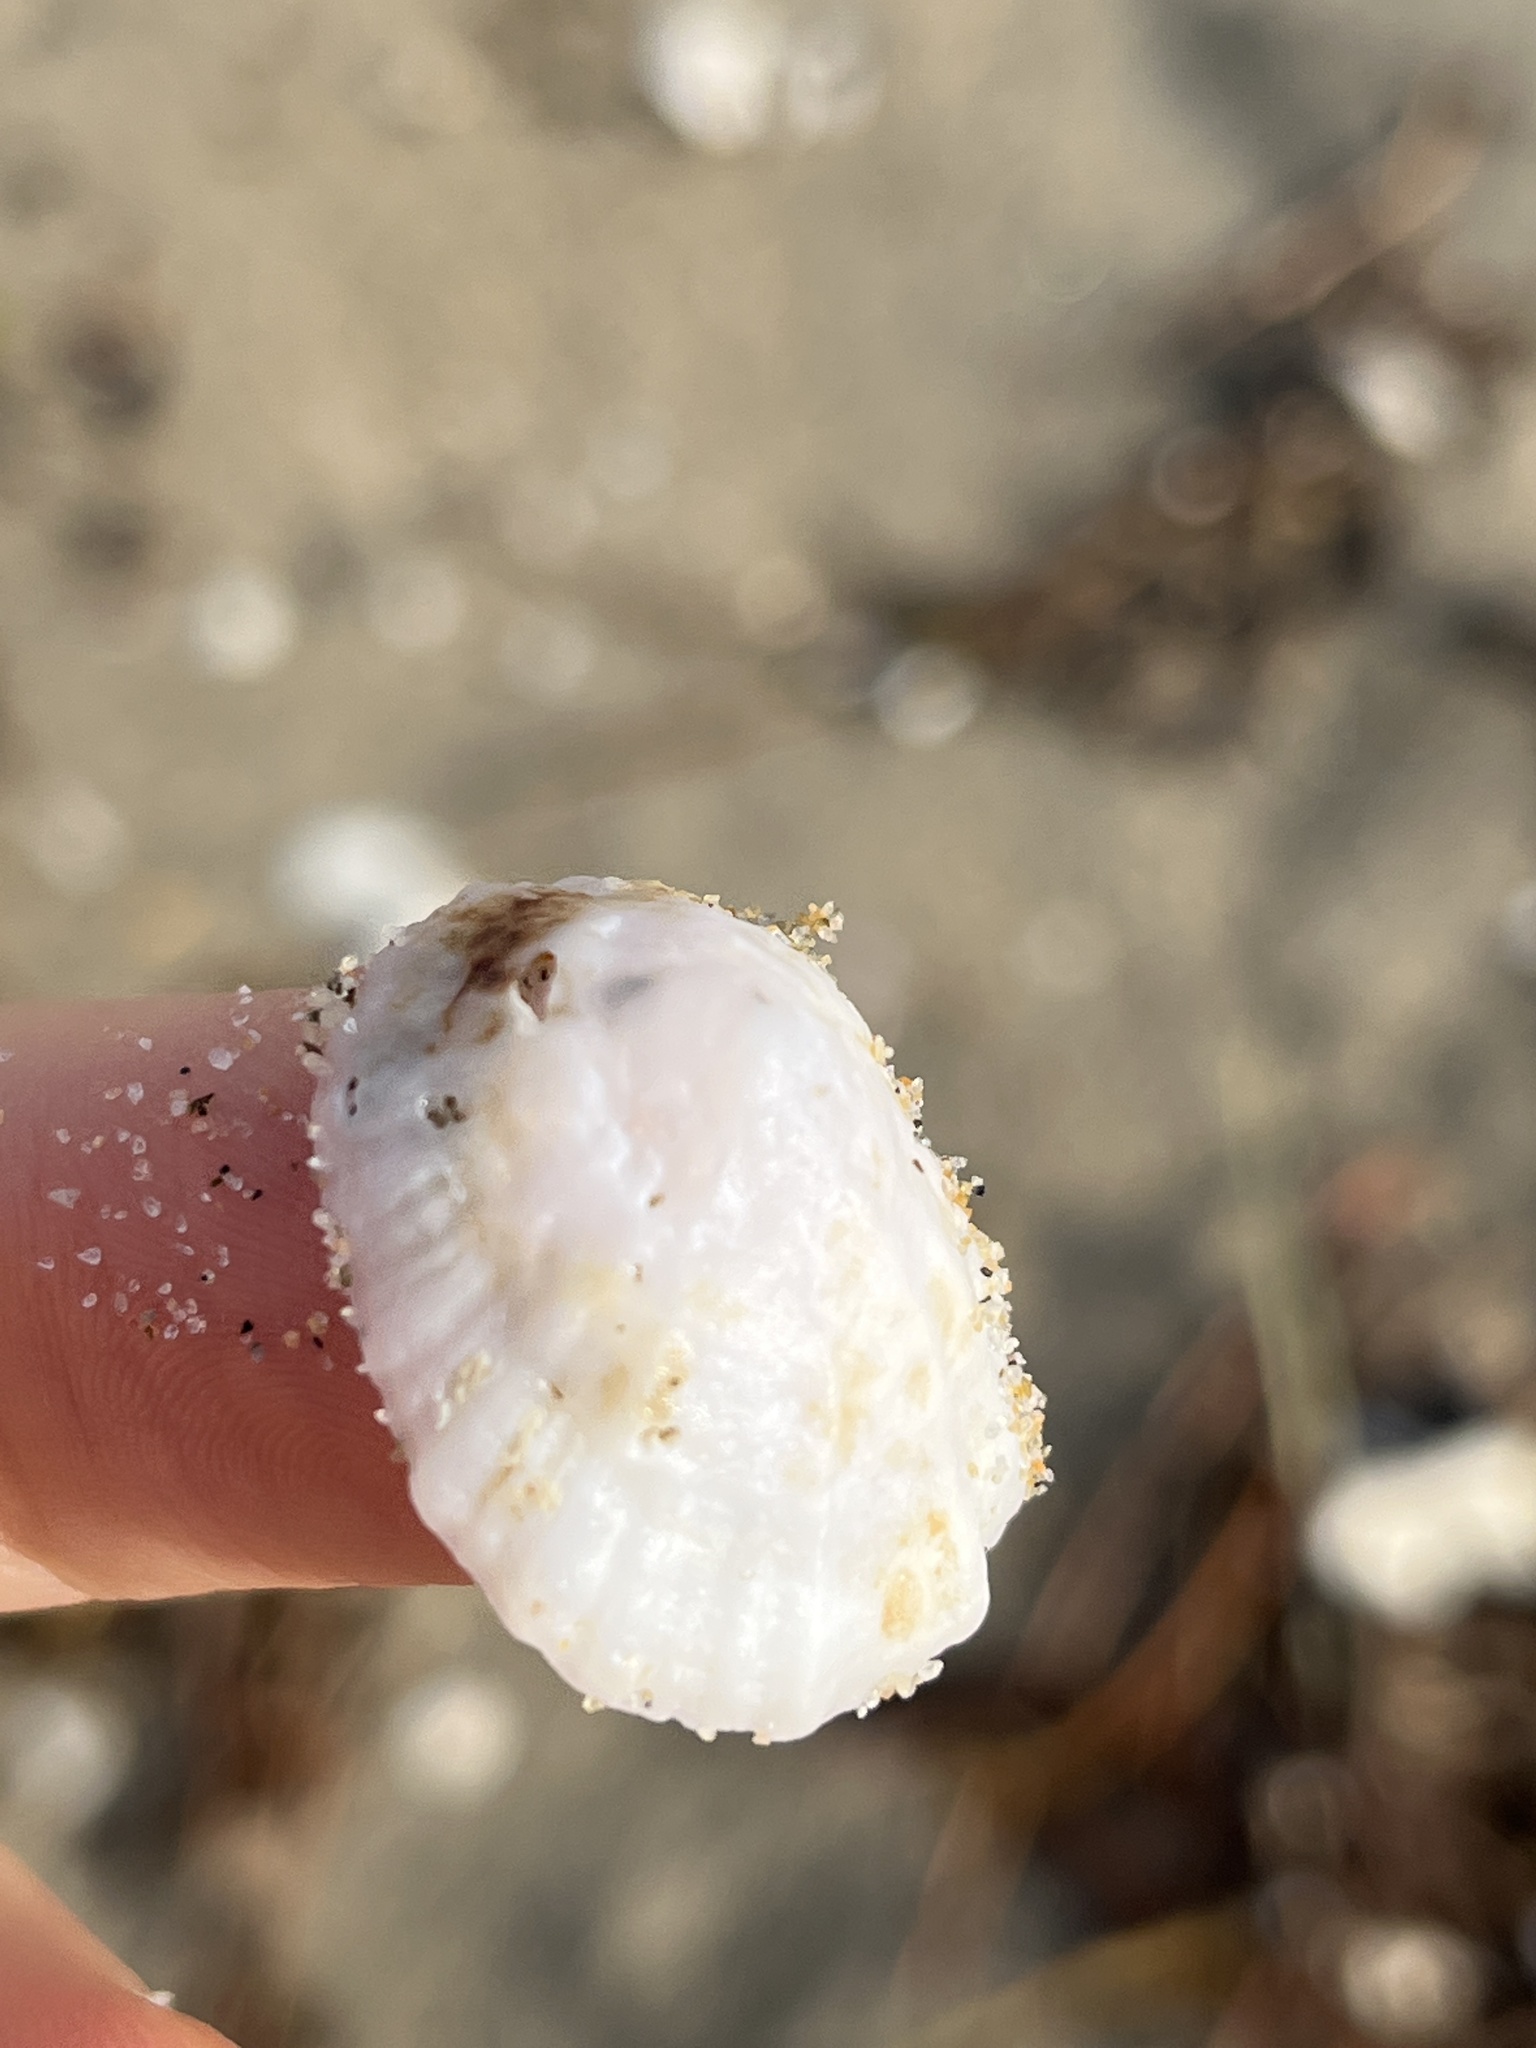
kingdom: Animalia
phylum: Mollusca
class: Gastropoda
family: Lottiidae
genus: Niveotectura
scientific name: Niveotectura pallida
